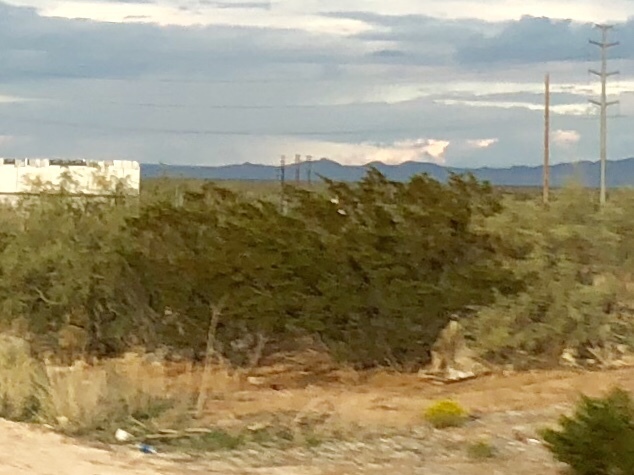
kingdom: Plantae
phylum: Tracheophyta
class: Magnoliopsida
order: Zygophyllales
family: Zygophyllaceae
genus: Larrea
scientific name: Larrea tridentata
